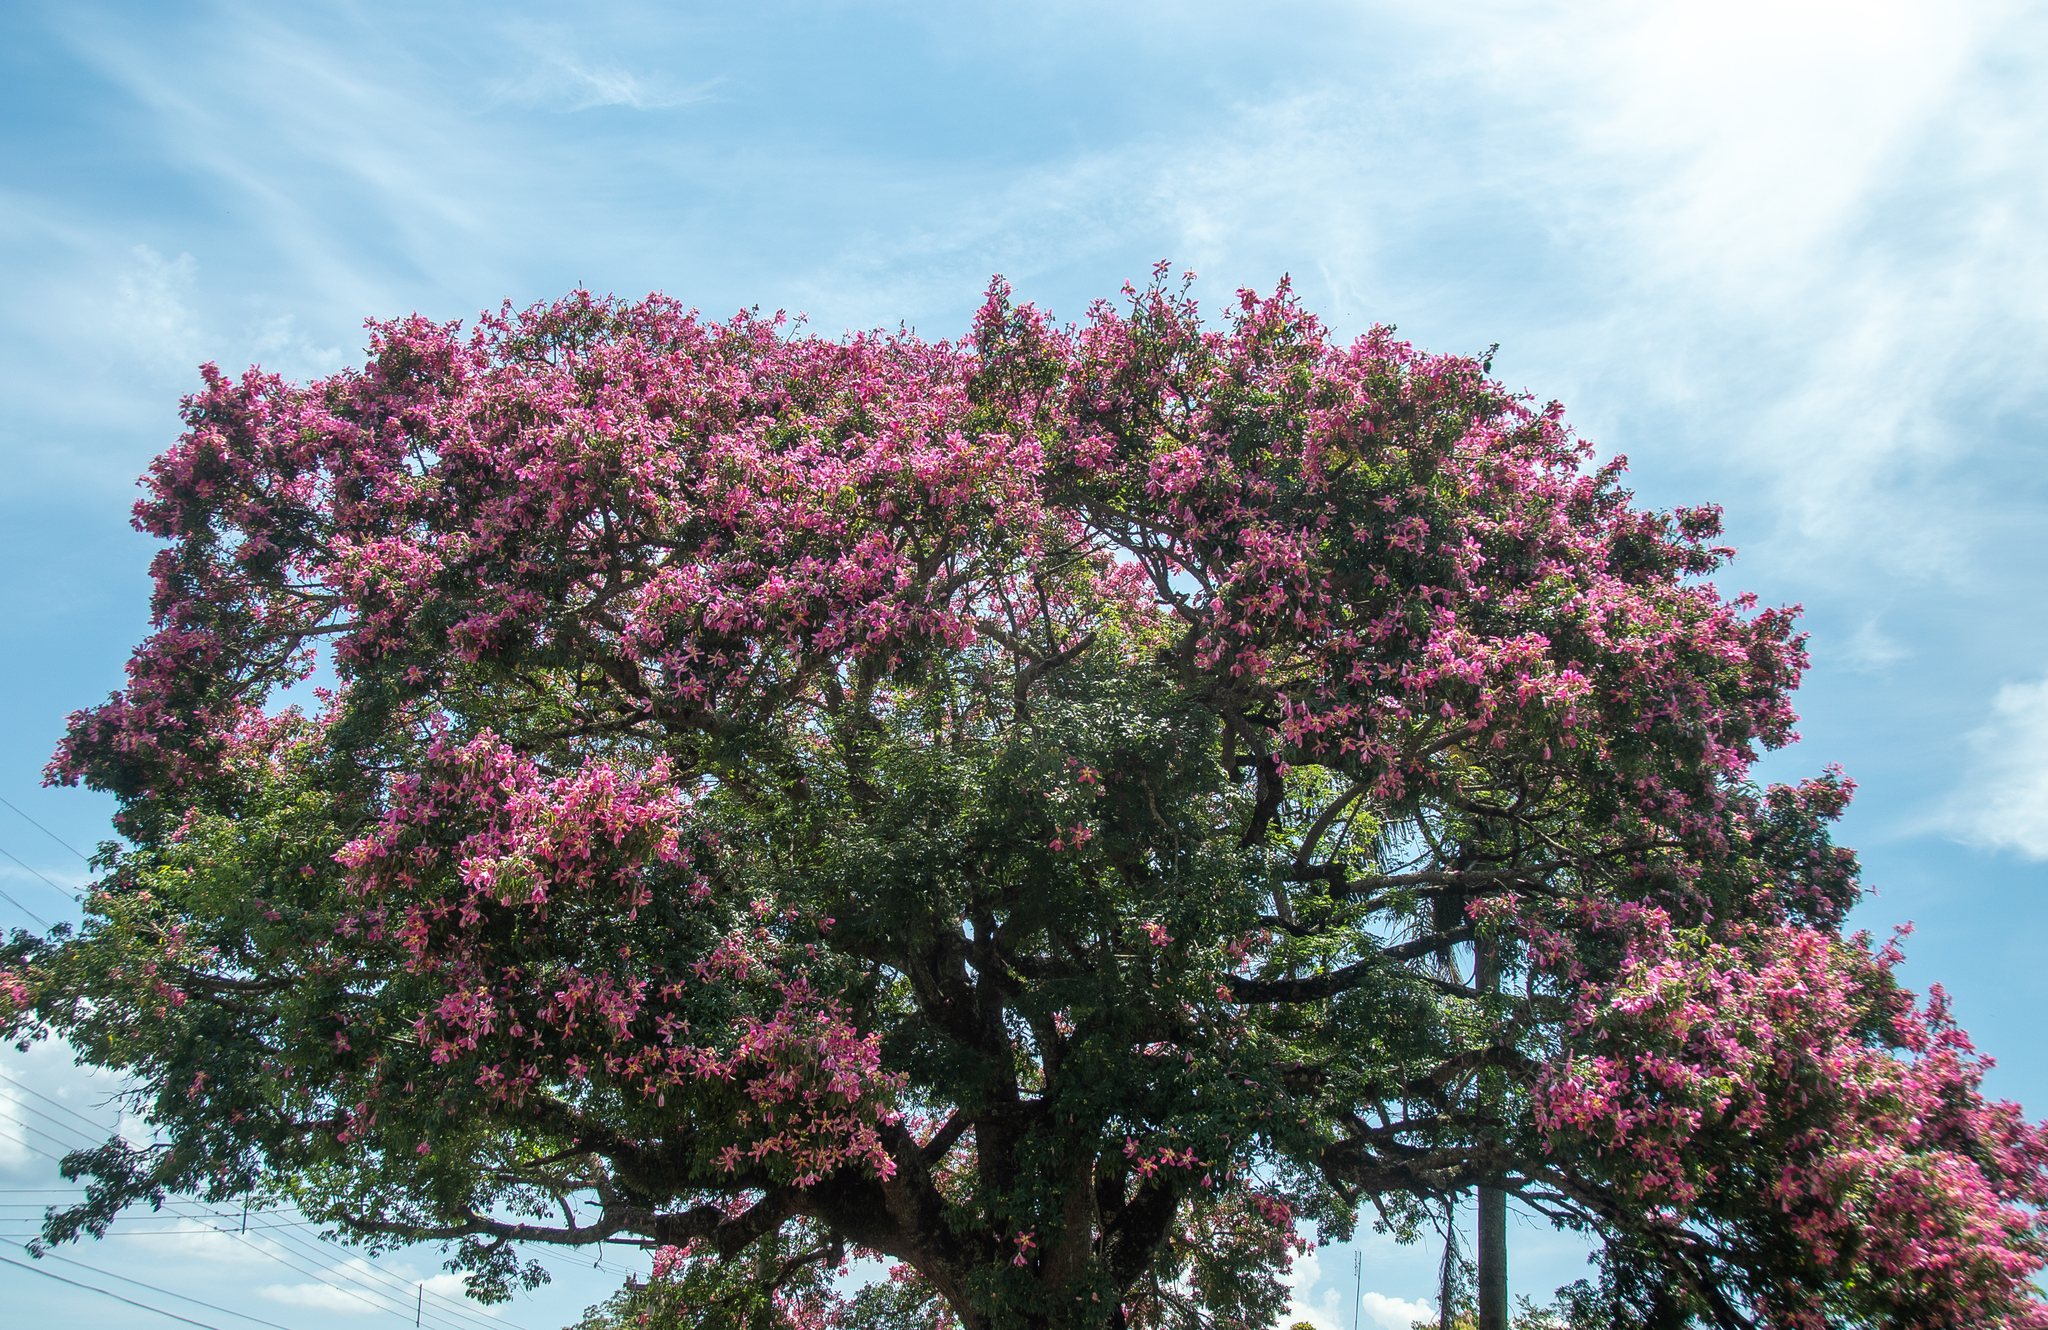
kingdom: Plantae
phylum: Tracheophyta
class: Magnoliopsida
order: Malvales
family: Malvaceae
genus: Ceiba
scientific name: Ceiba speciosa
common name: Silk-floss tree
